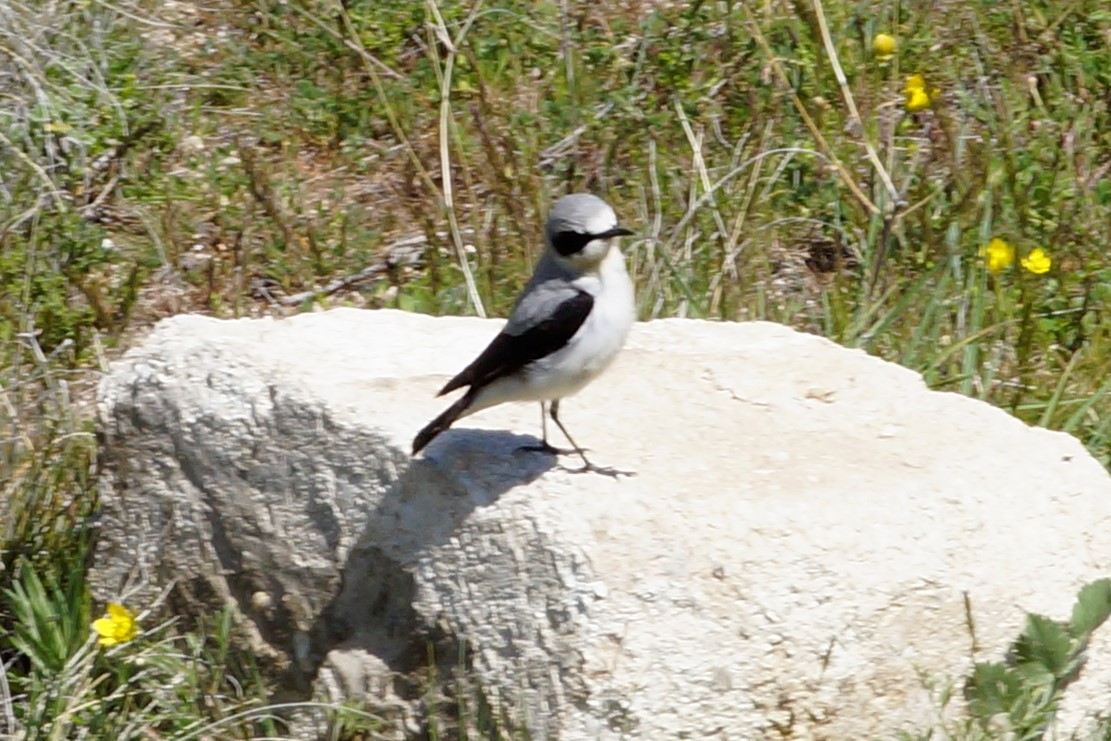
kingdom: Animalia
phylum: Chordata
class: Aves
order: Passeriformes
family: Muscicapidae
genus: Oenanthe
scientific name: Oenanthe oenanthe
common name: Northern wheatear
